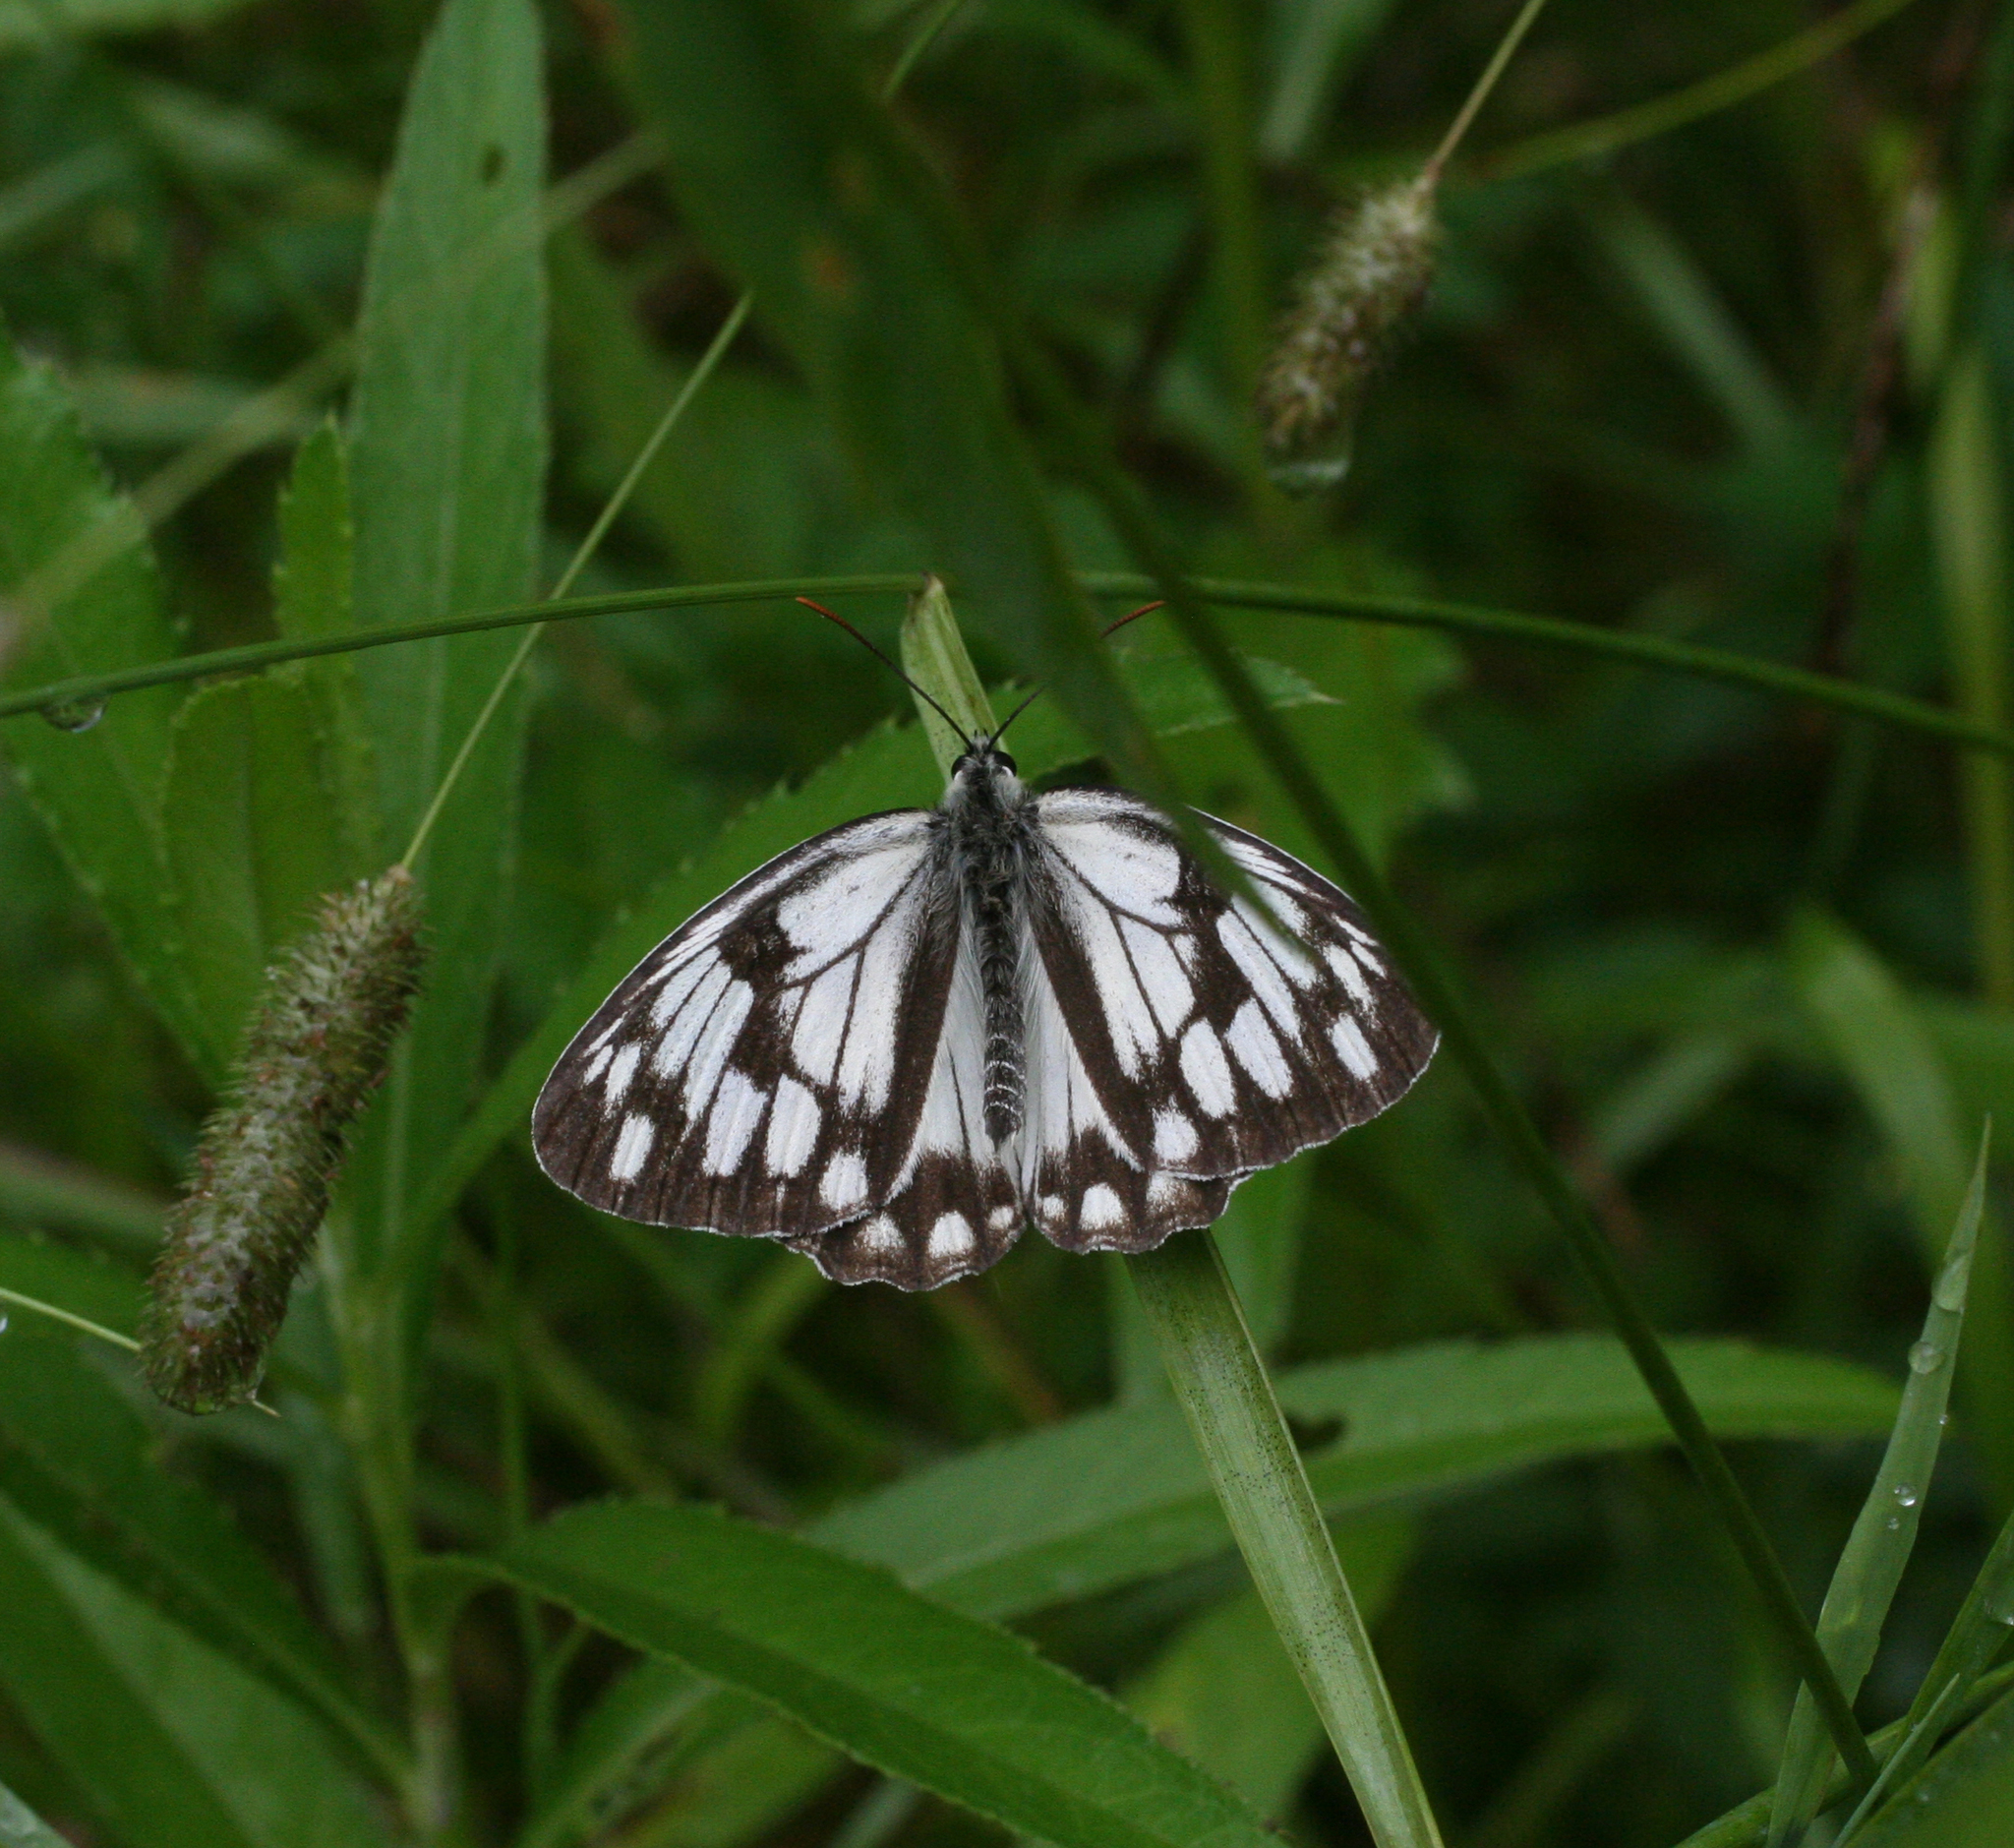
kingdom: Animalia
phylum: Arthropoda
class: Insecta
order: Lepidoptera
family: Nymphalidae
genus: Melanargia
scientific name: Melanargia halimede
